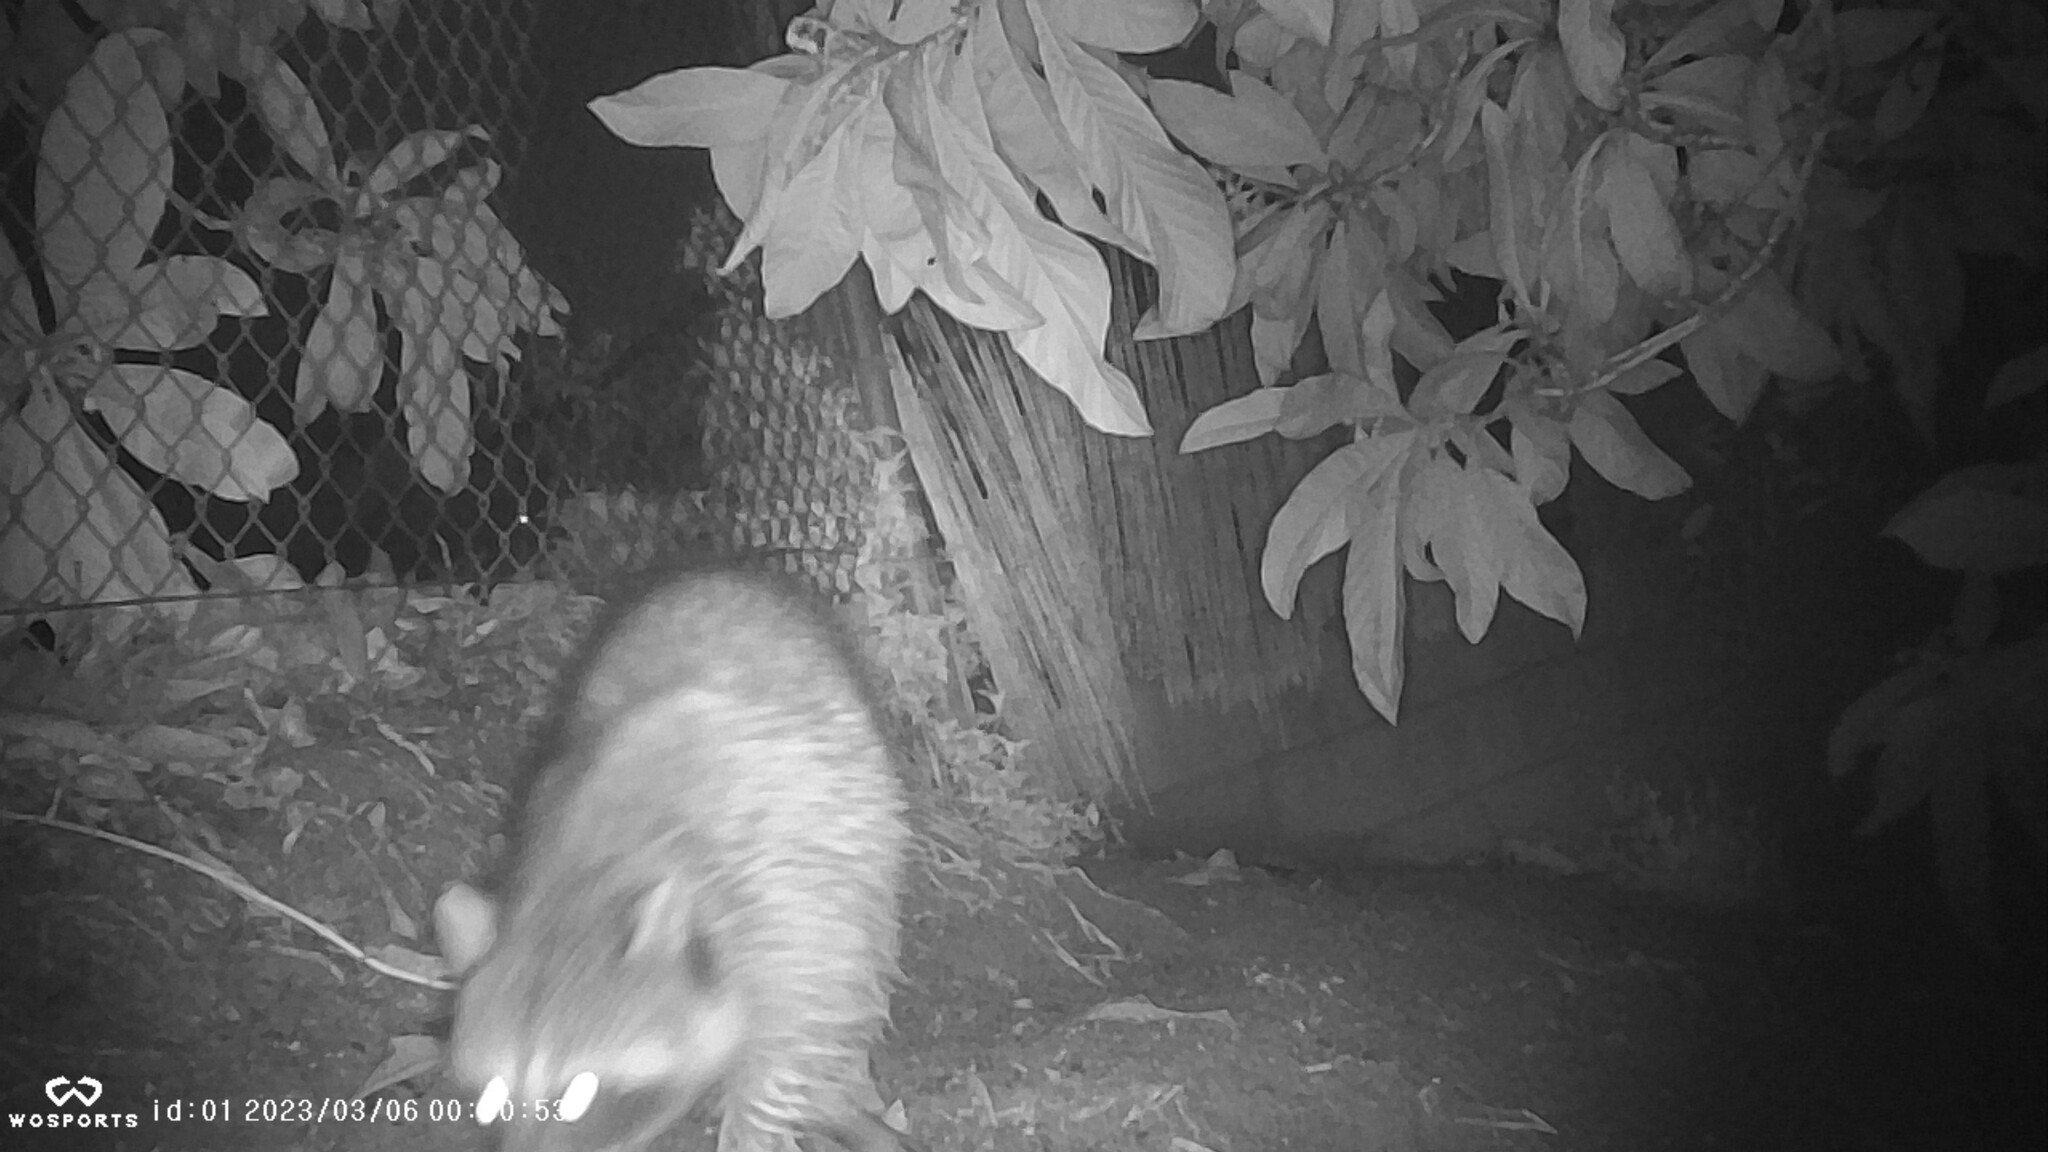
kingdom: Animalia
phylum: Chordata
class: Mammalia
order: Carnivora
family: Procyonidae
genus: Procyon
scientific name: Procyon lotor
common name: Raccoon
